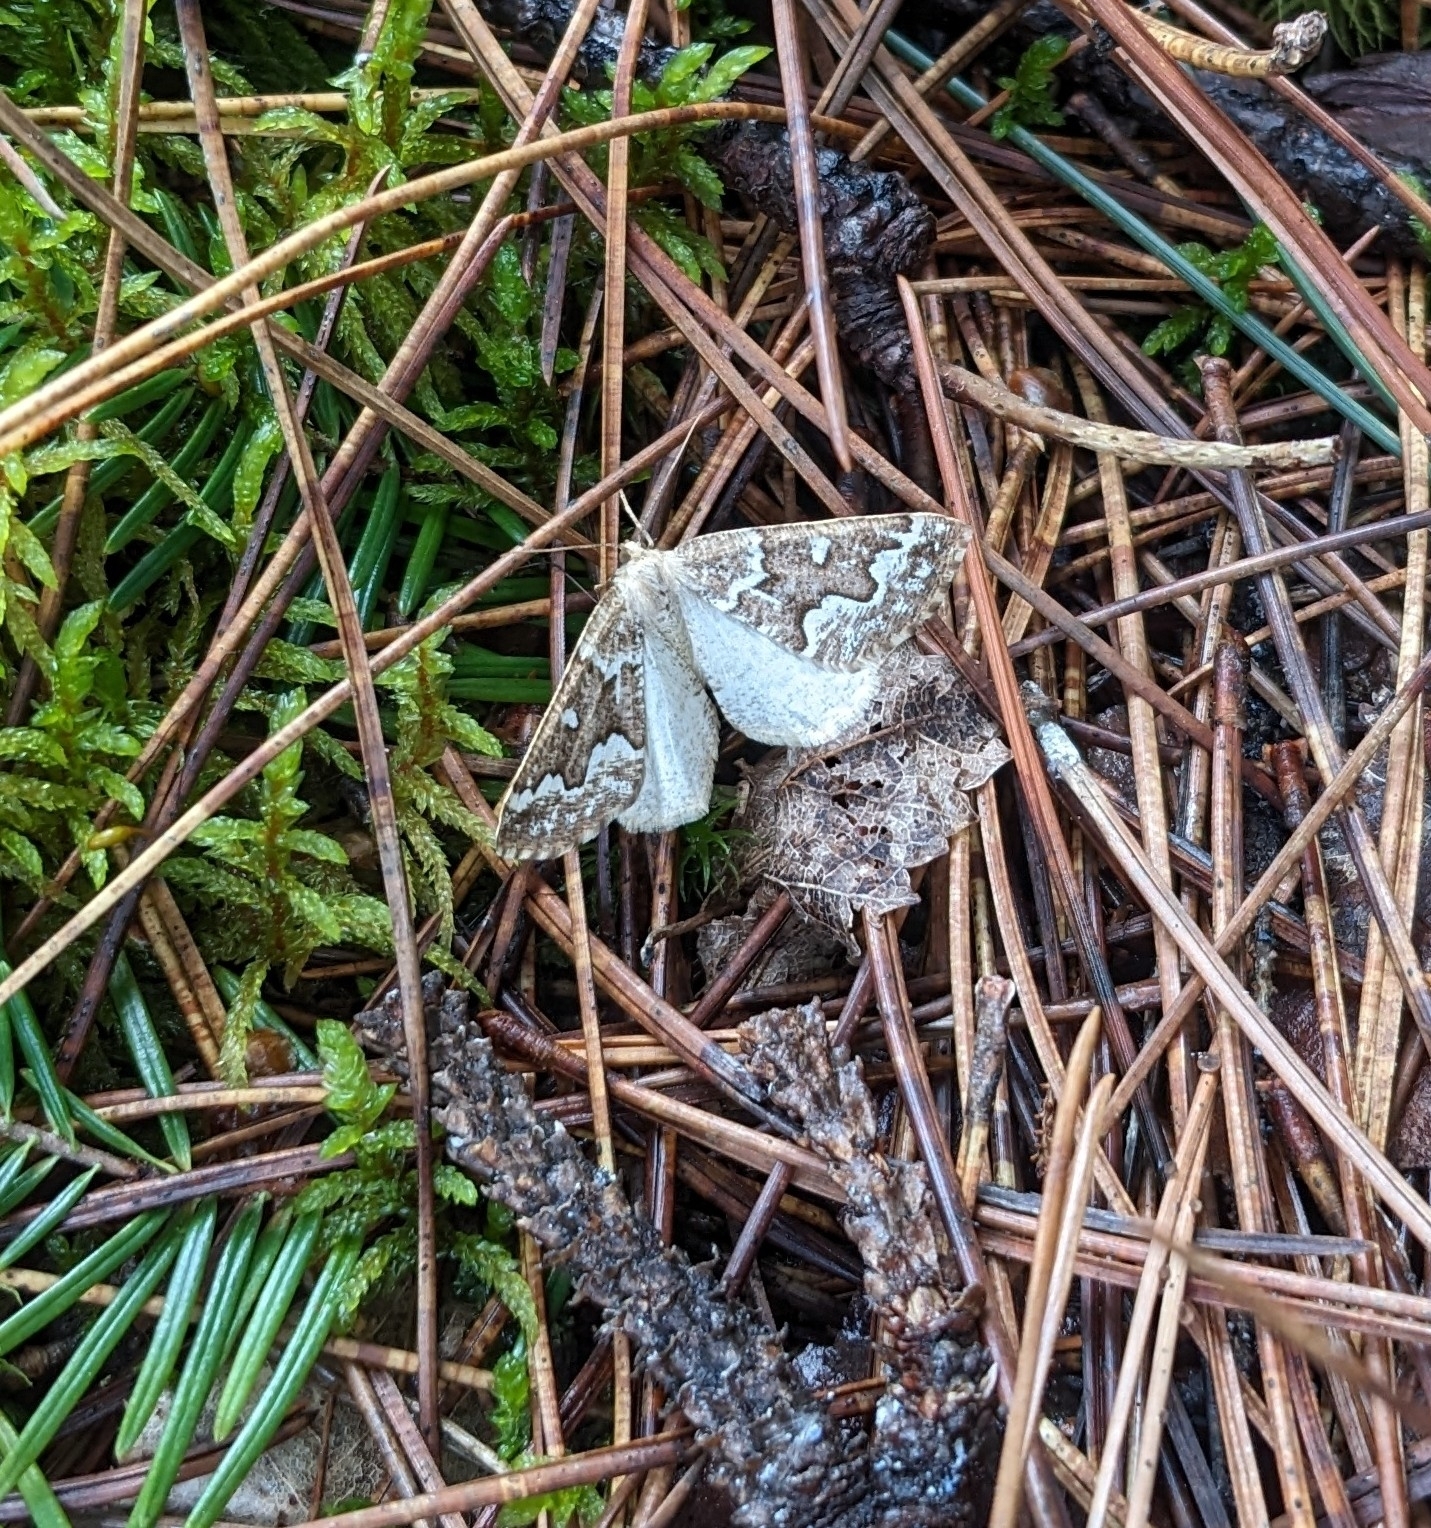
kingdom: Animalia
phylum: Arthropoda
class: Insecta
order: Lepidoptera
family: Geometridae
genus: Caripeta
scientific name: Caripeta divisata
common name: Gray spruce looper
